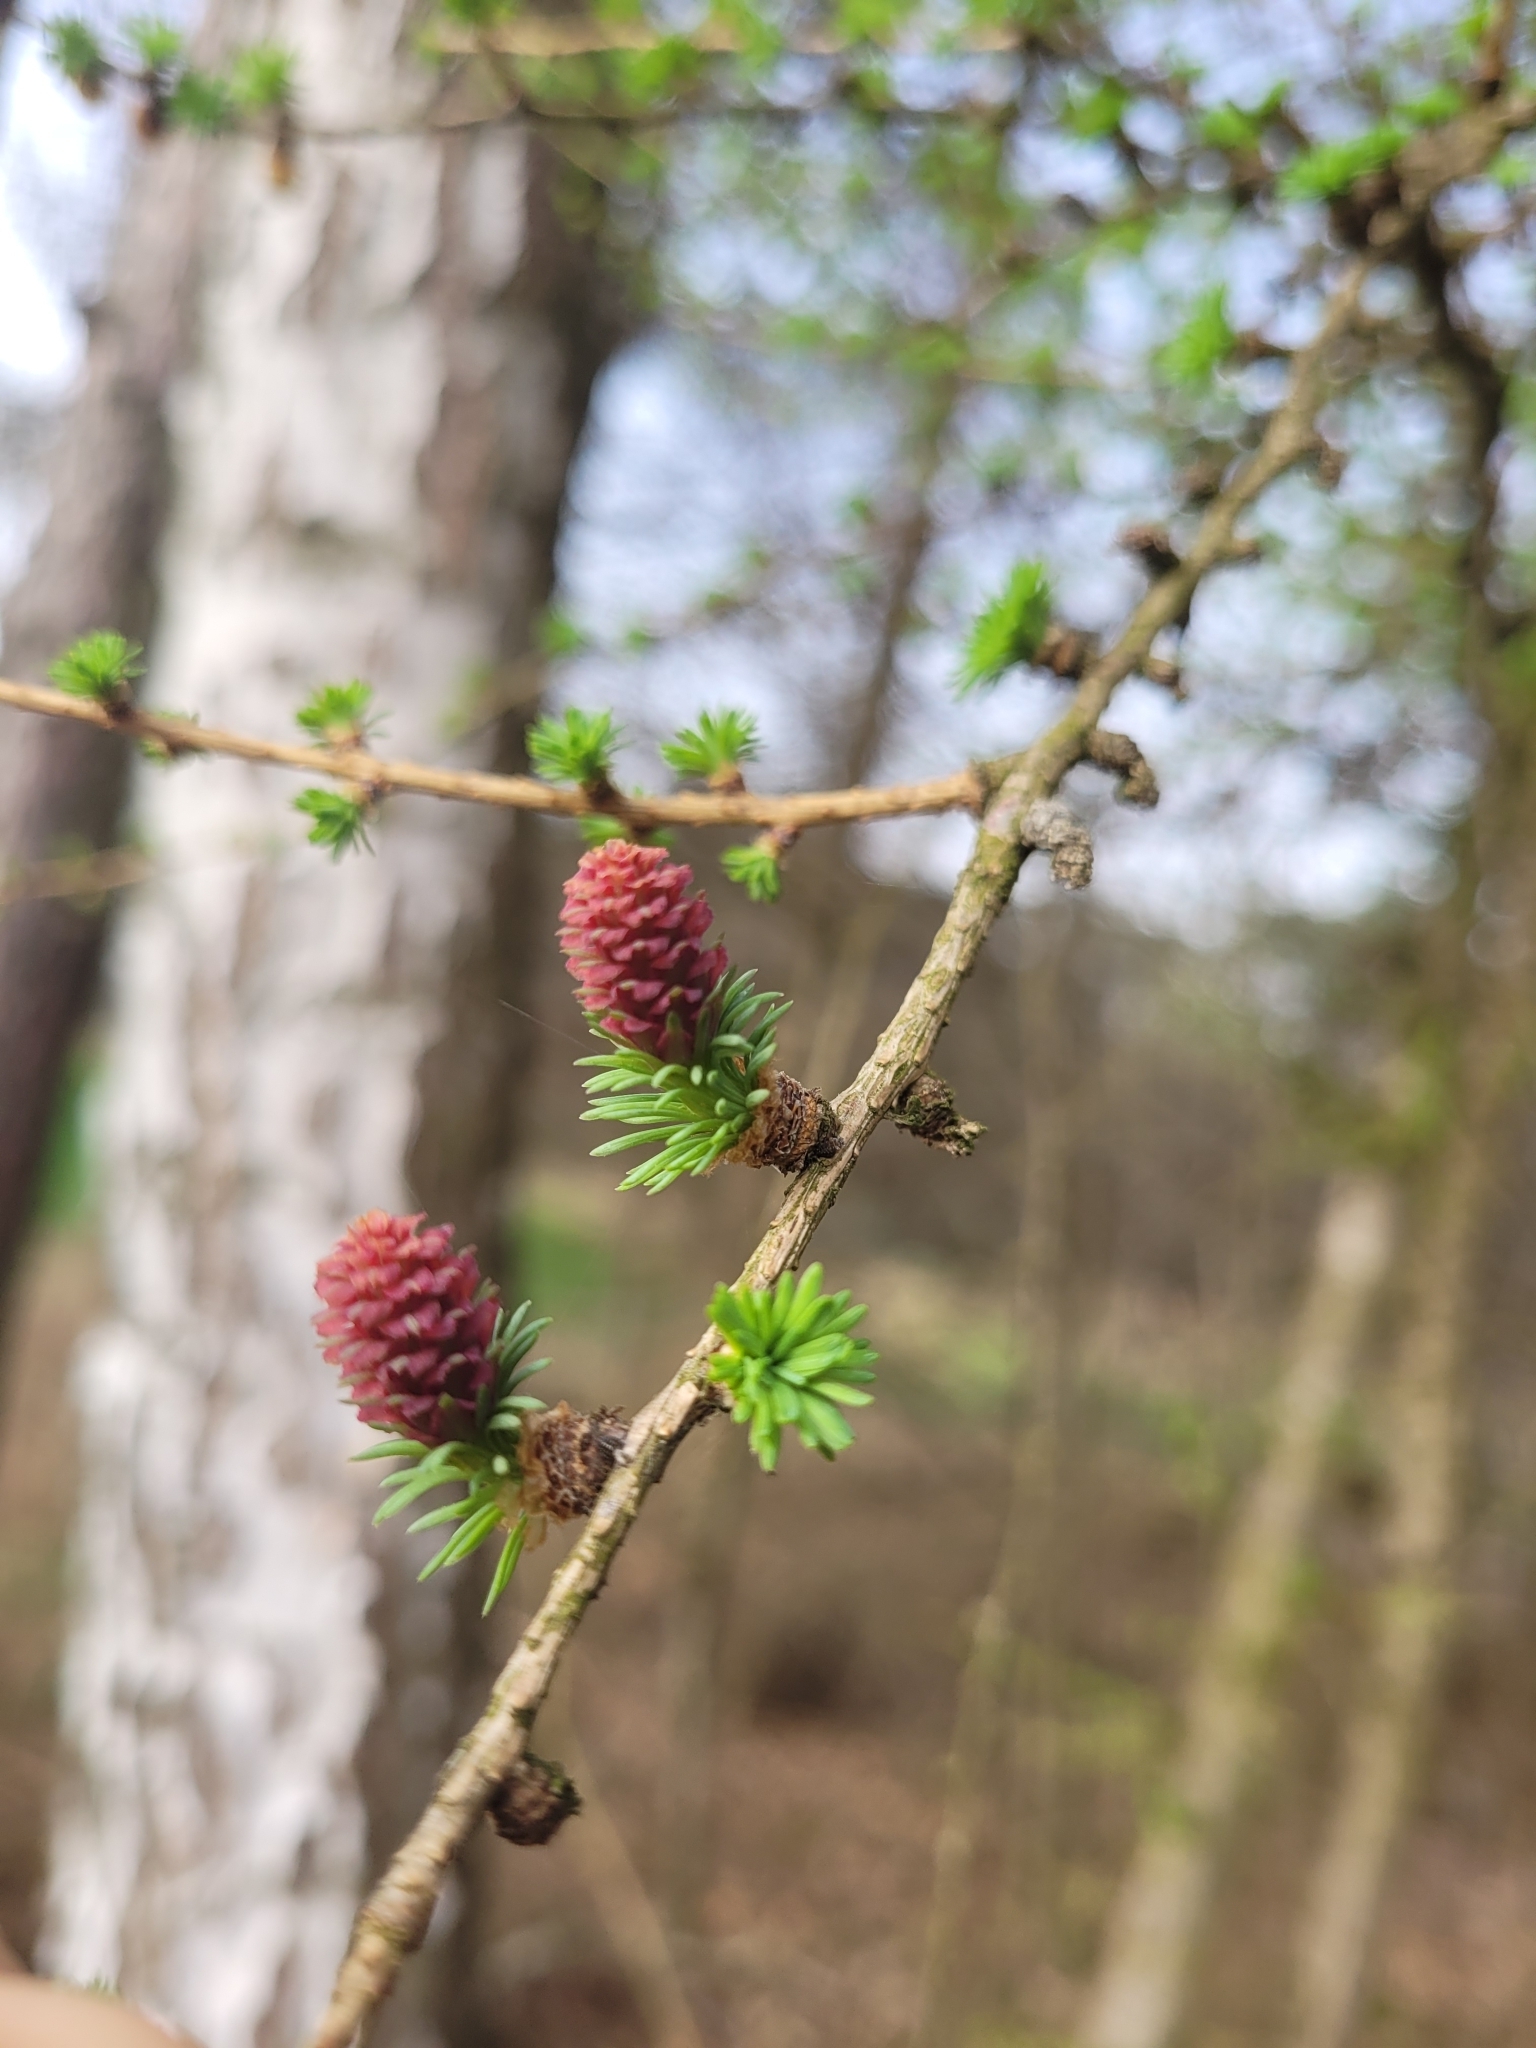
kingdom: Plantae
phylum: Tracheophyta
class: Pinopsida
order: Pinales
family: Pinaceae
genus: Larix
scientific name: Larix decidua
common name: European larch
